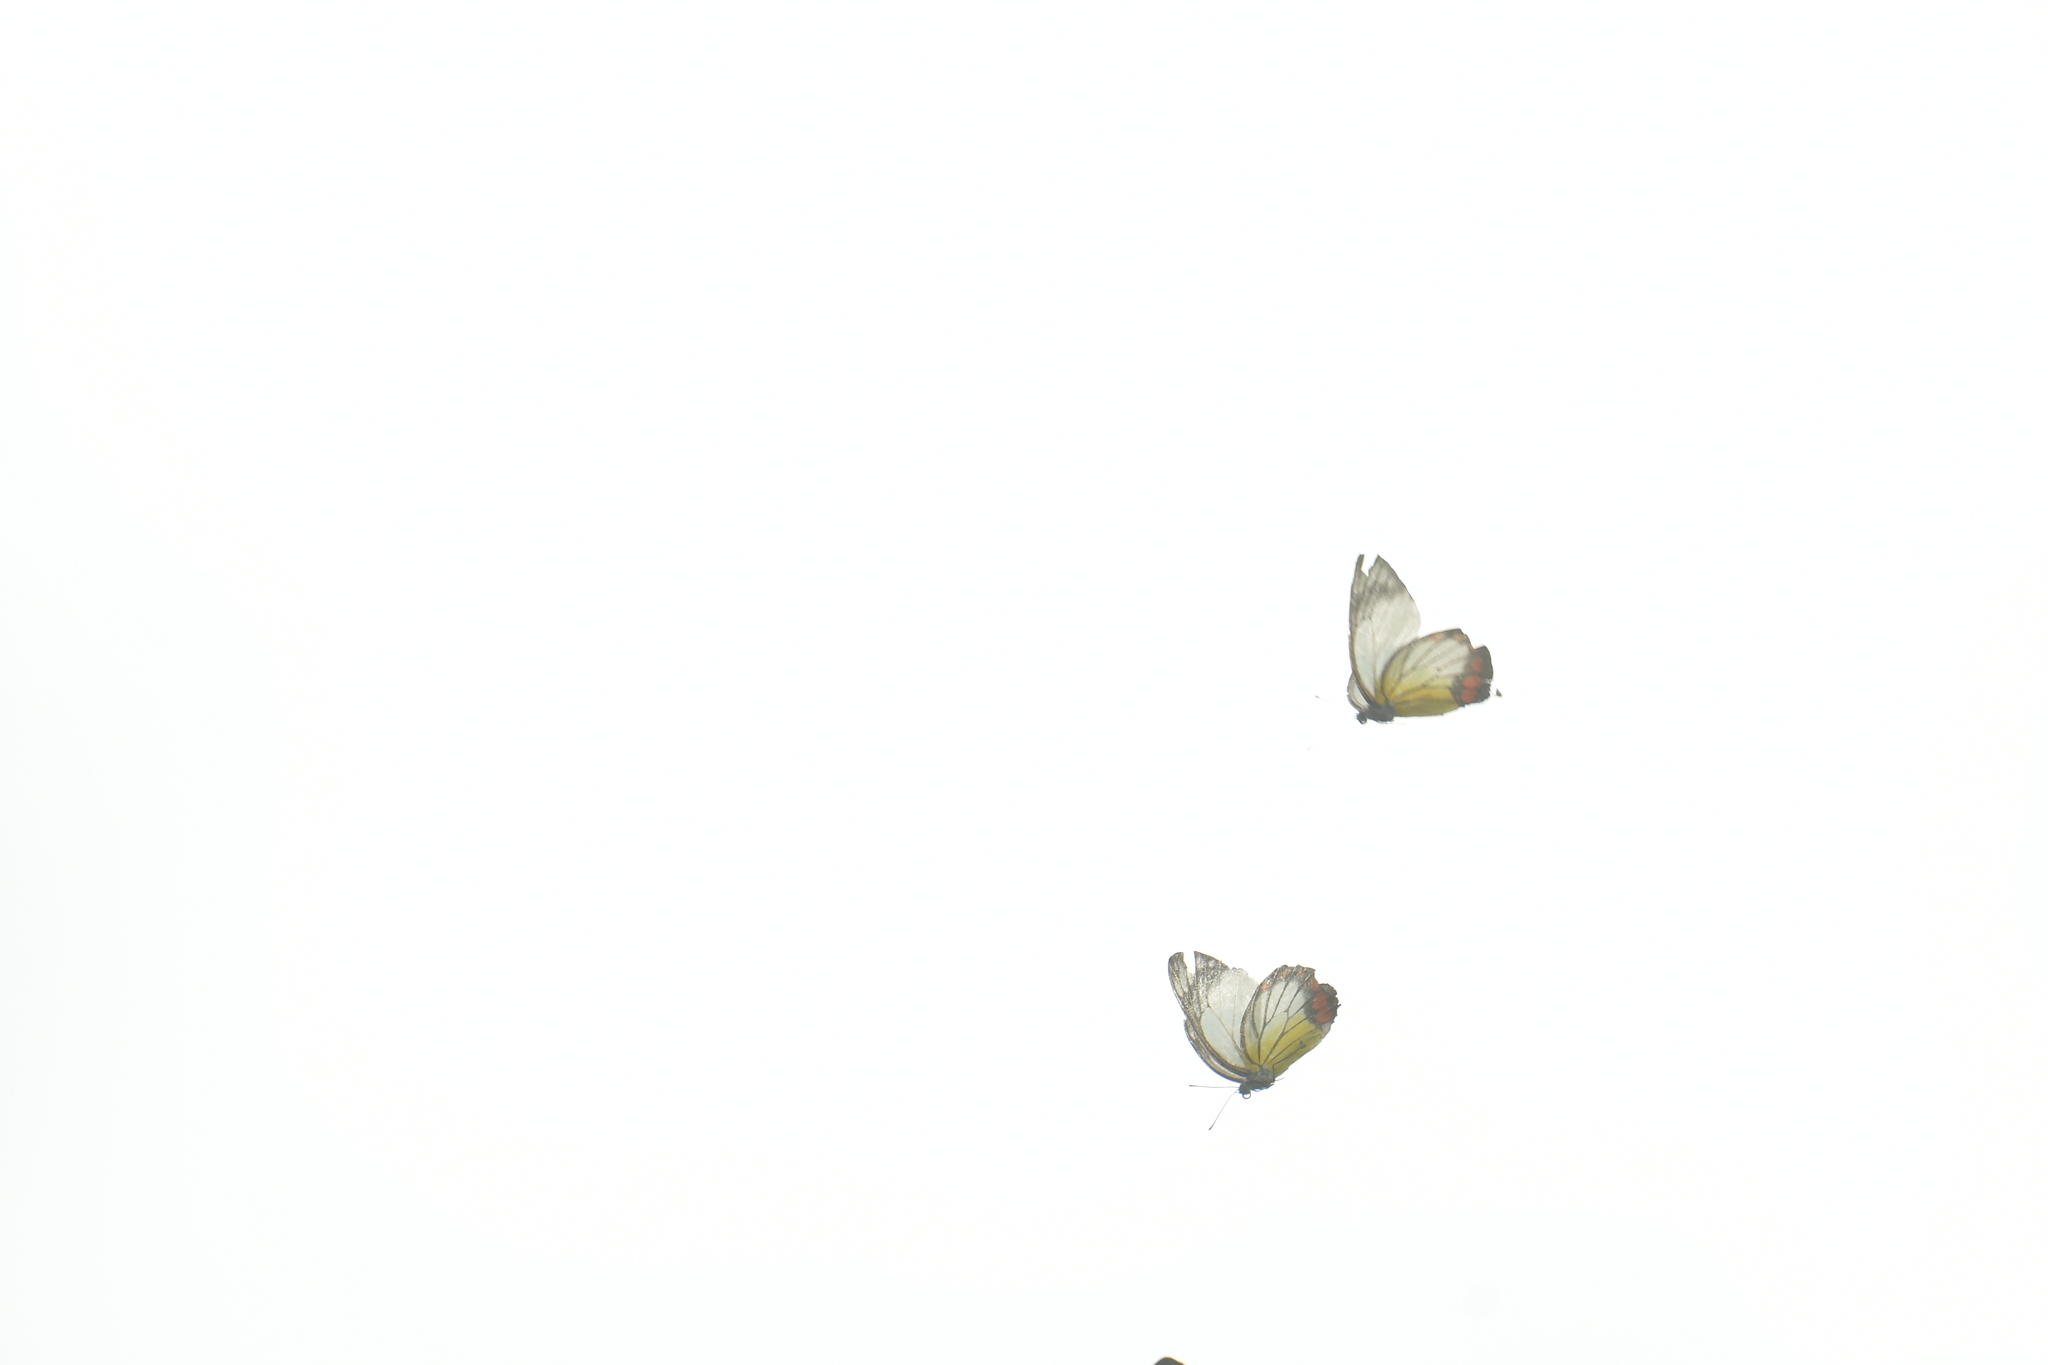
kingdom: Animalia
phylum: Arthropoda
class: Insecta
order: Lepidoptera
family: Pieridae
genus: Delias
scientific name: Delias hyparete
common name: Painted jezebel
